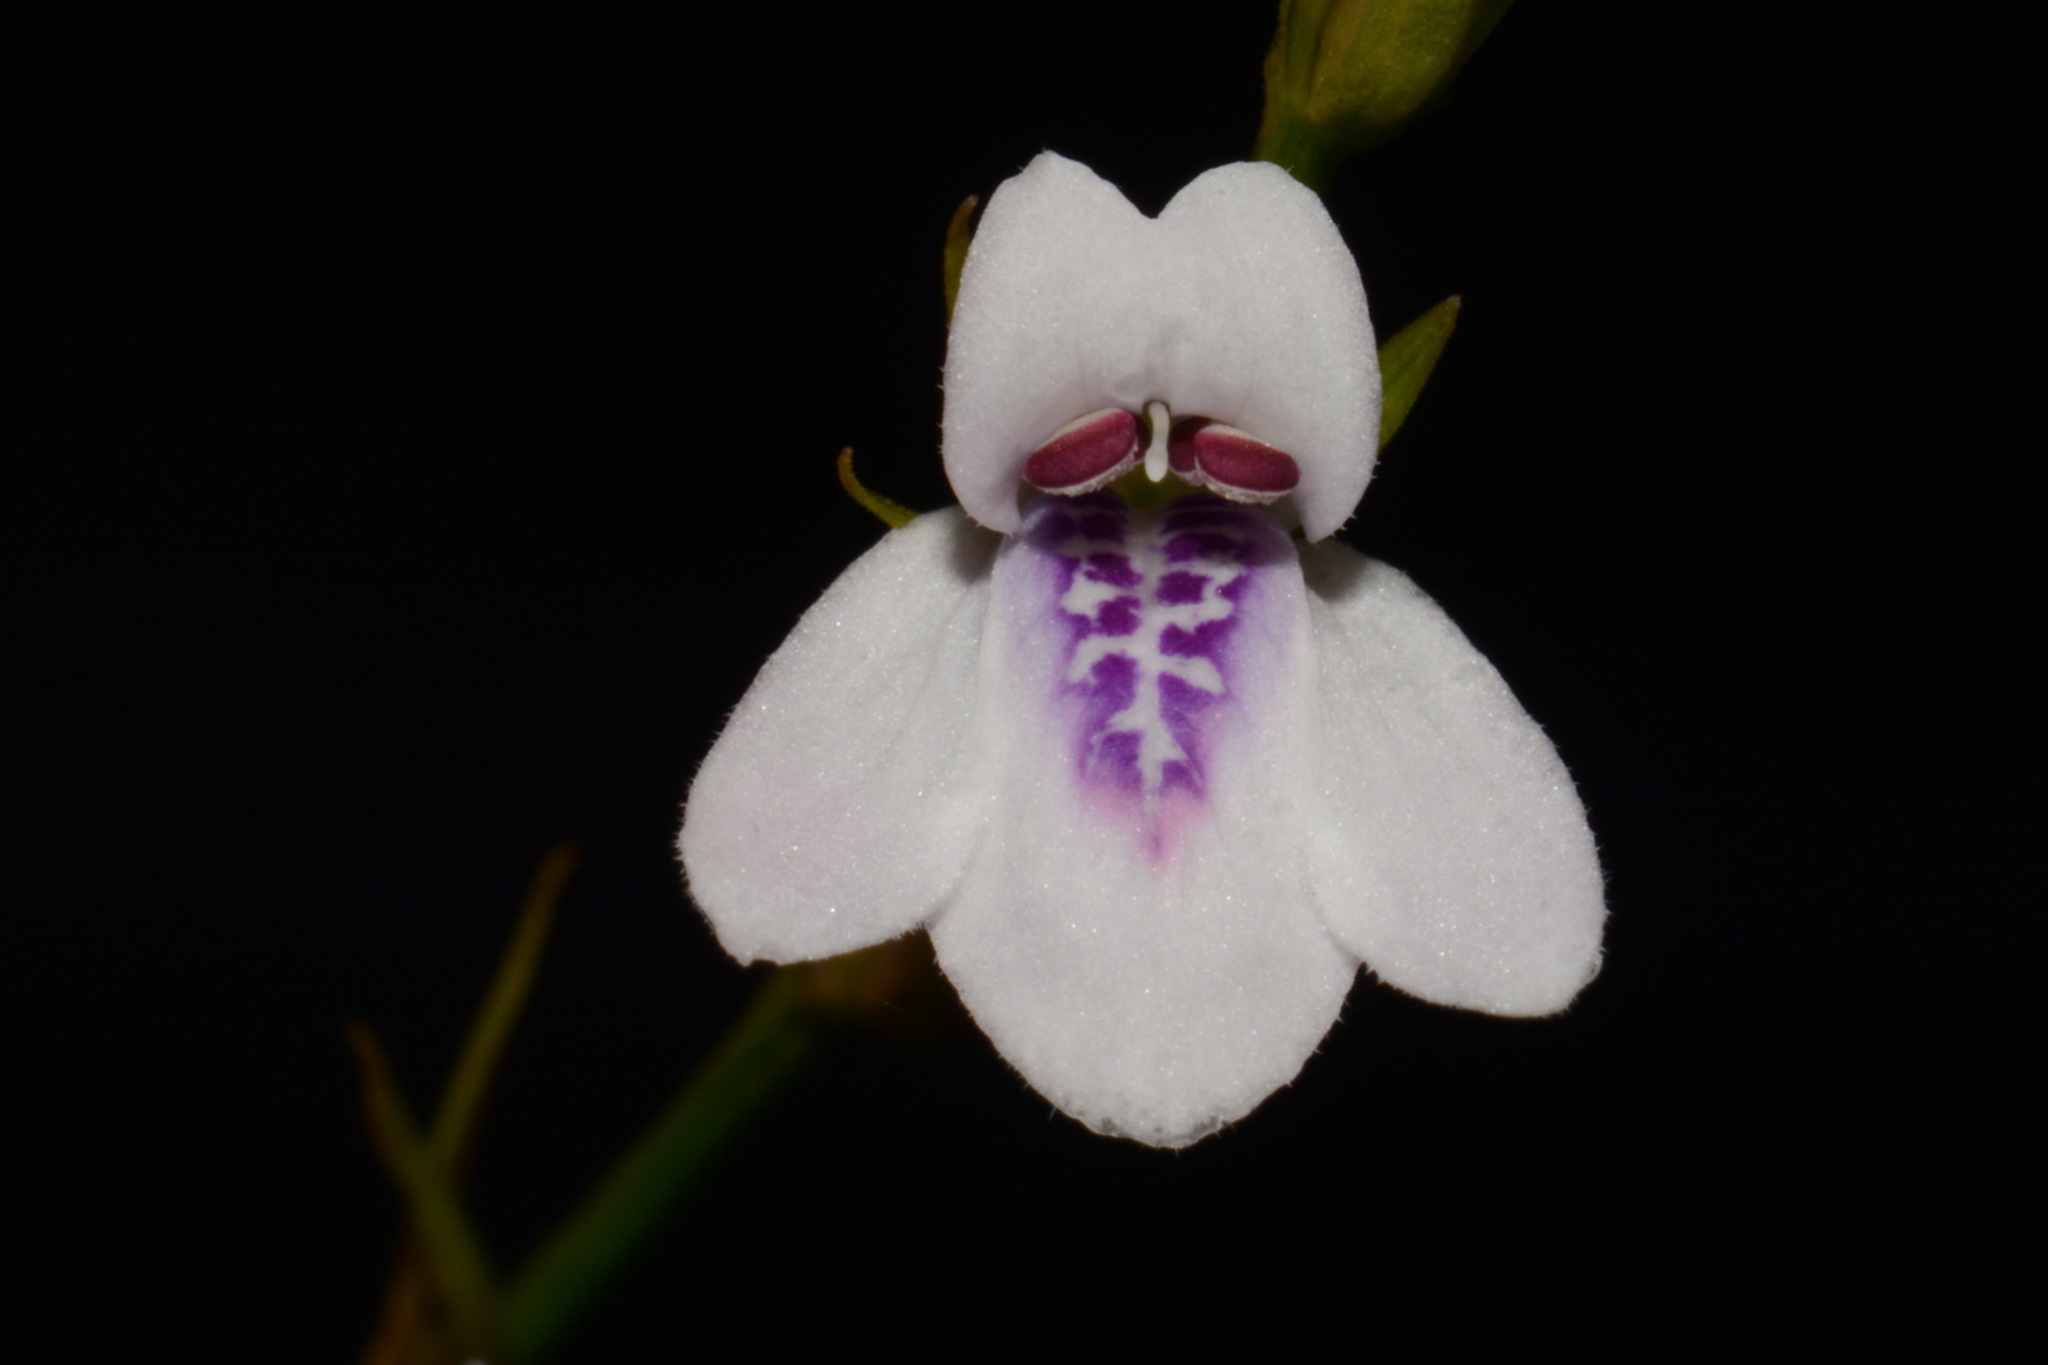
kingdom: Plantae
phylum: Tracheophyta
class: Magnoliopsida
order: Lamiales
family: Acanthaceae
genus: Justicia
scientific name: Justicia lanceolata
